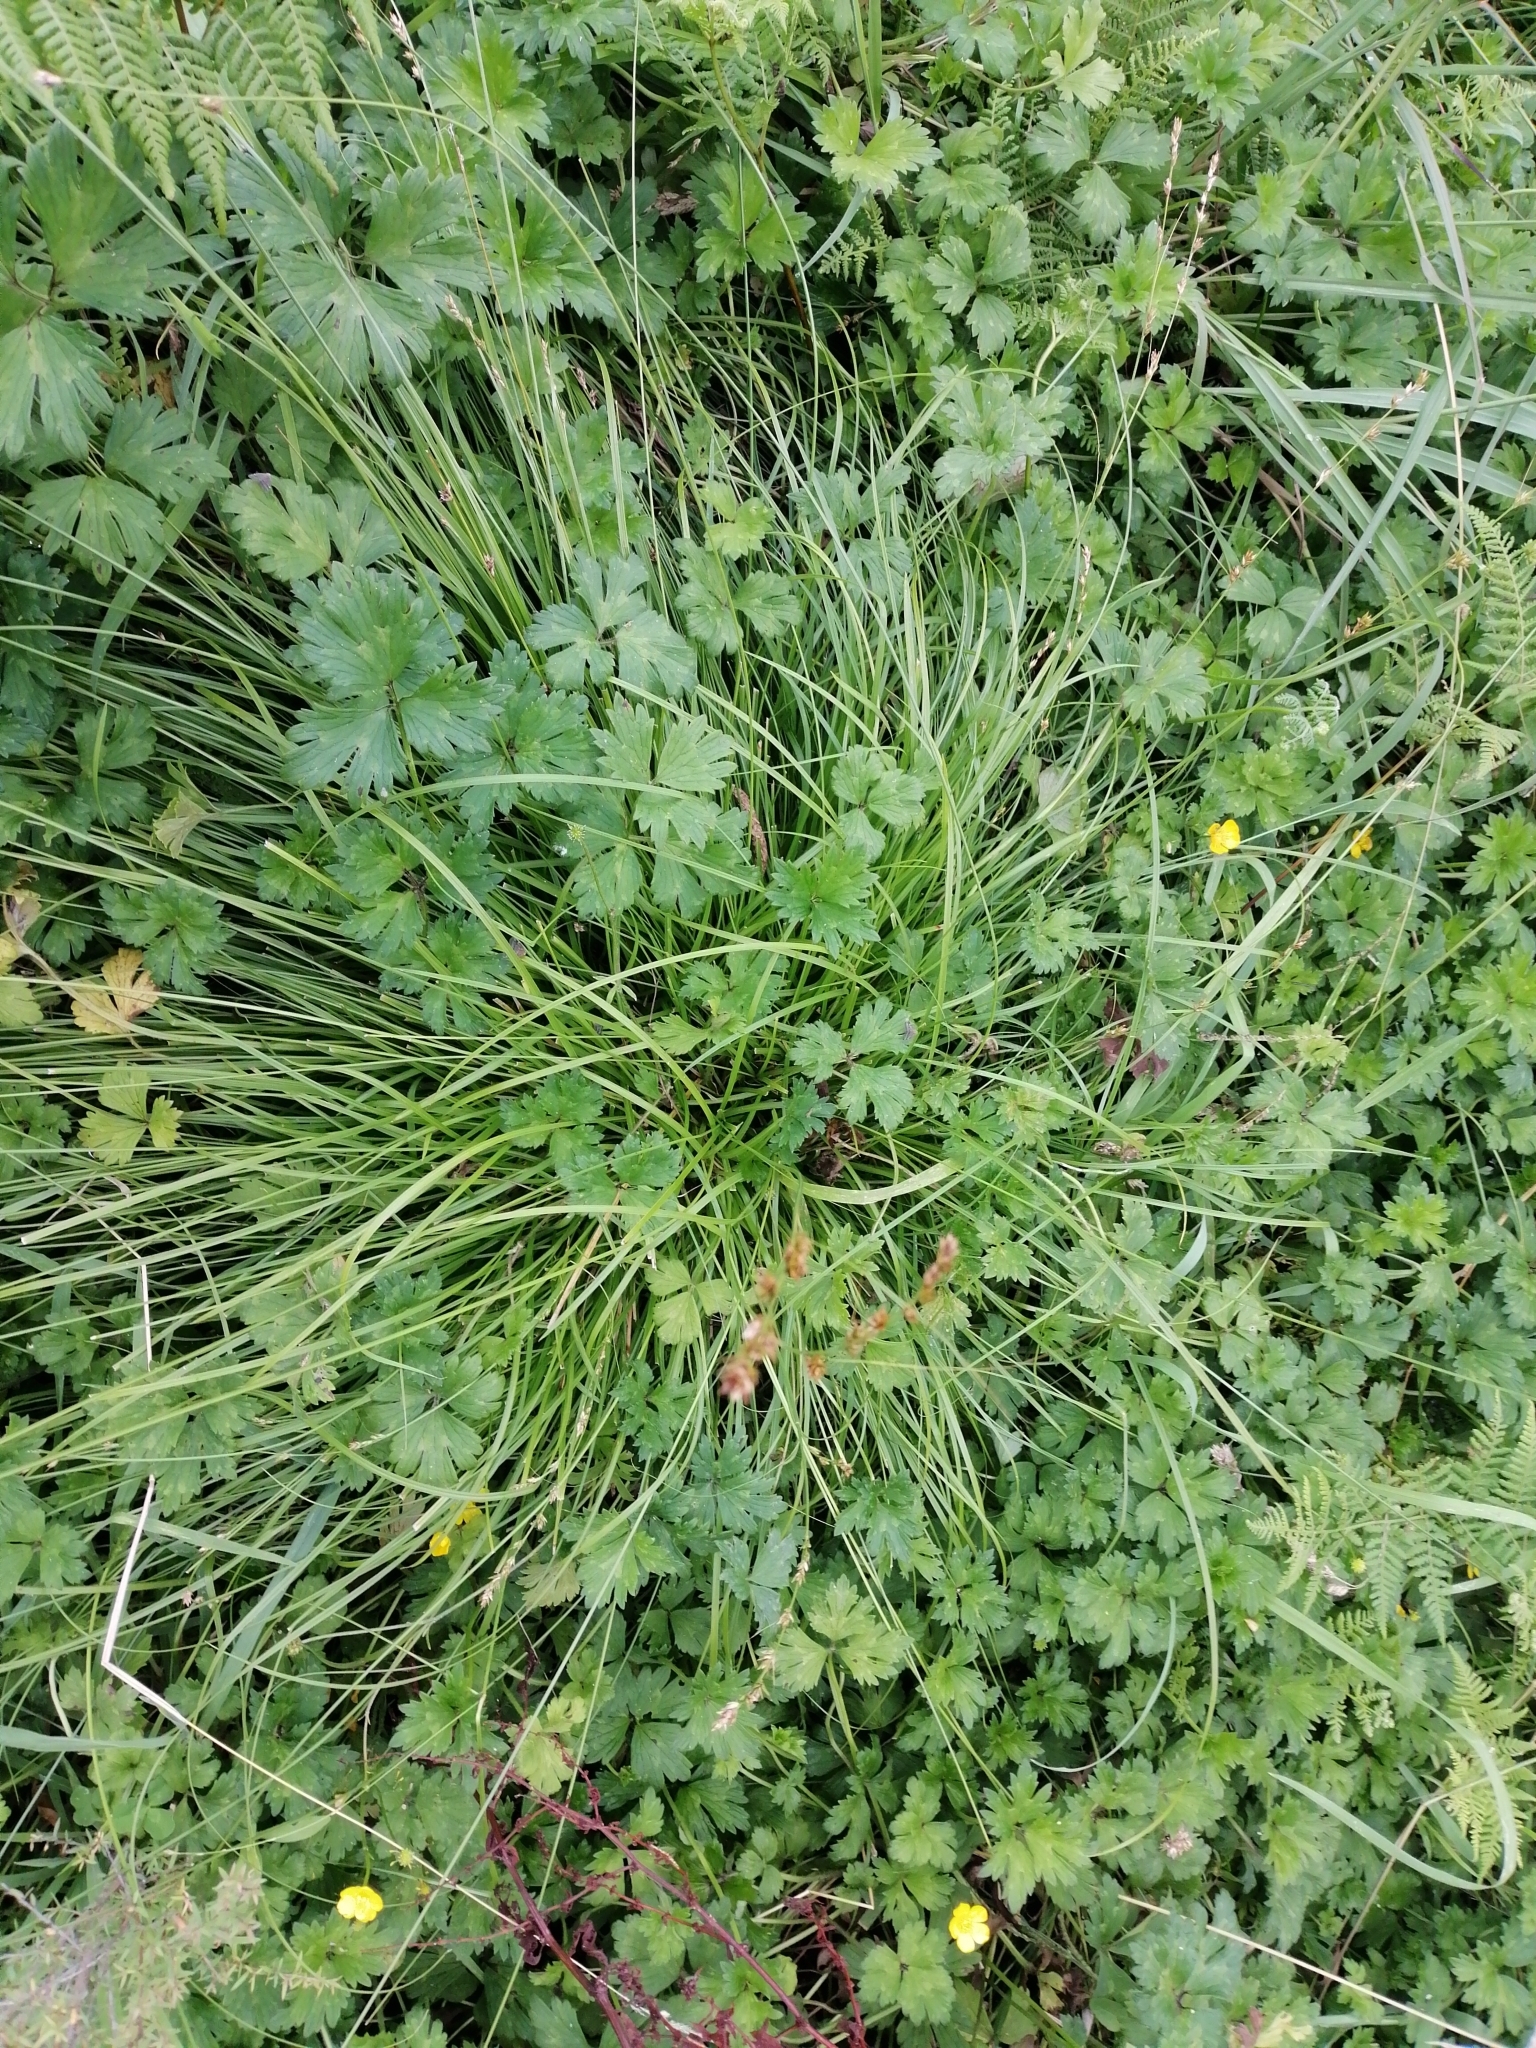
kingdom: Plantae
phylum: Tracheophyta
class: Liliopsida
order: Poales
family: Cyperaceae
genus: Carex
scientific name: Carex divulsa
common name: Grassland sedge
